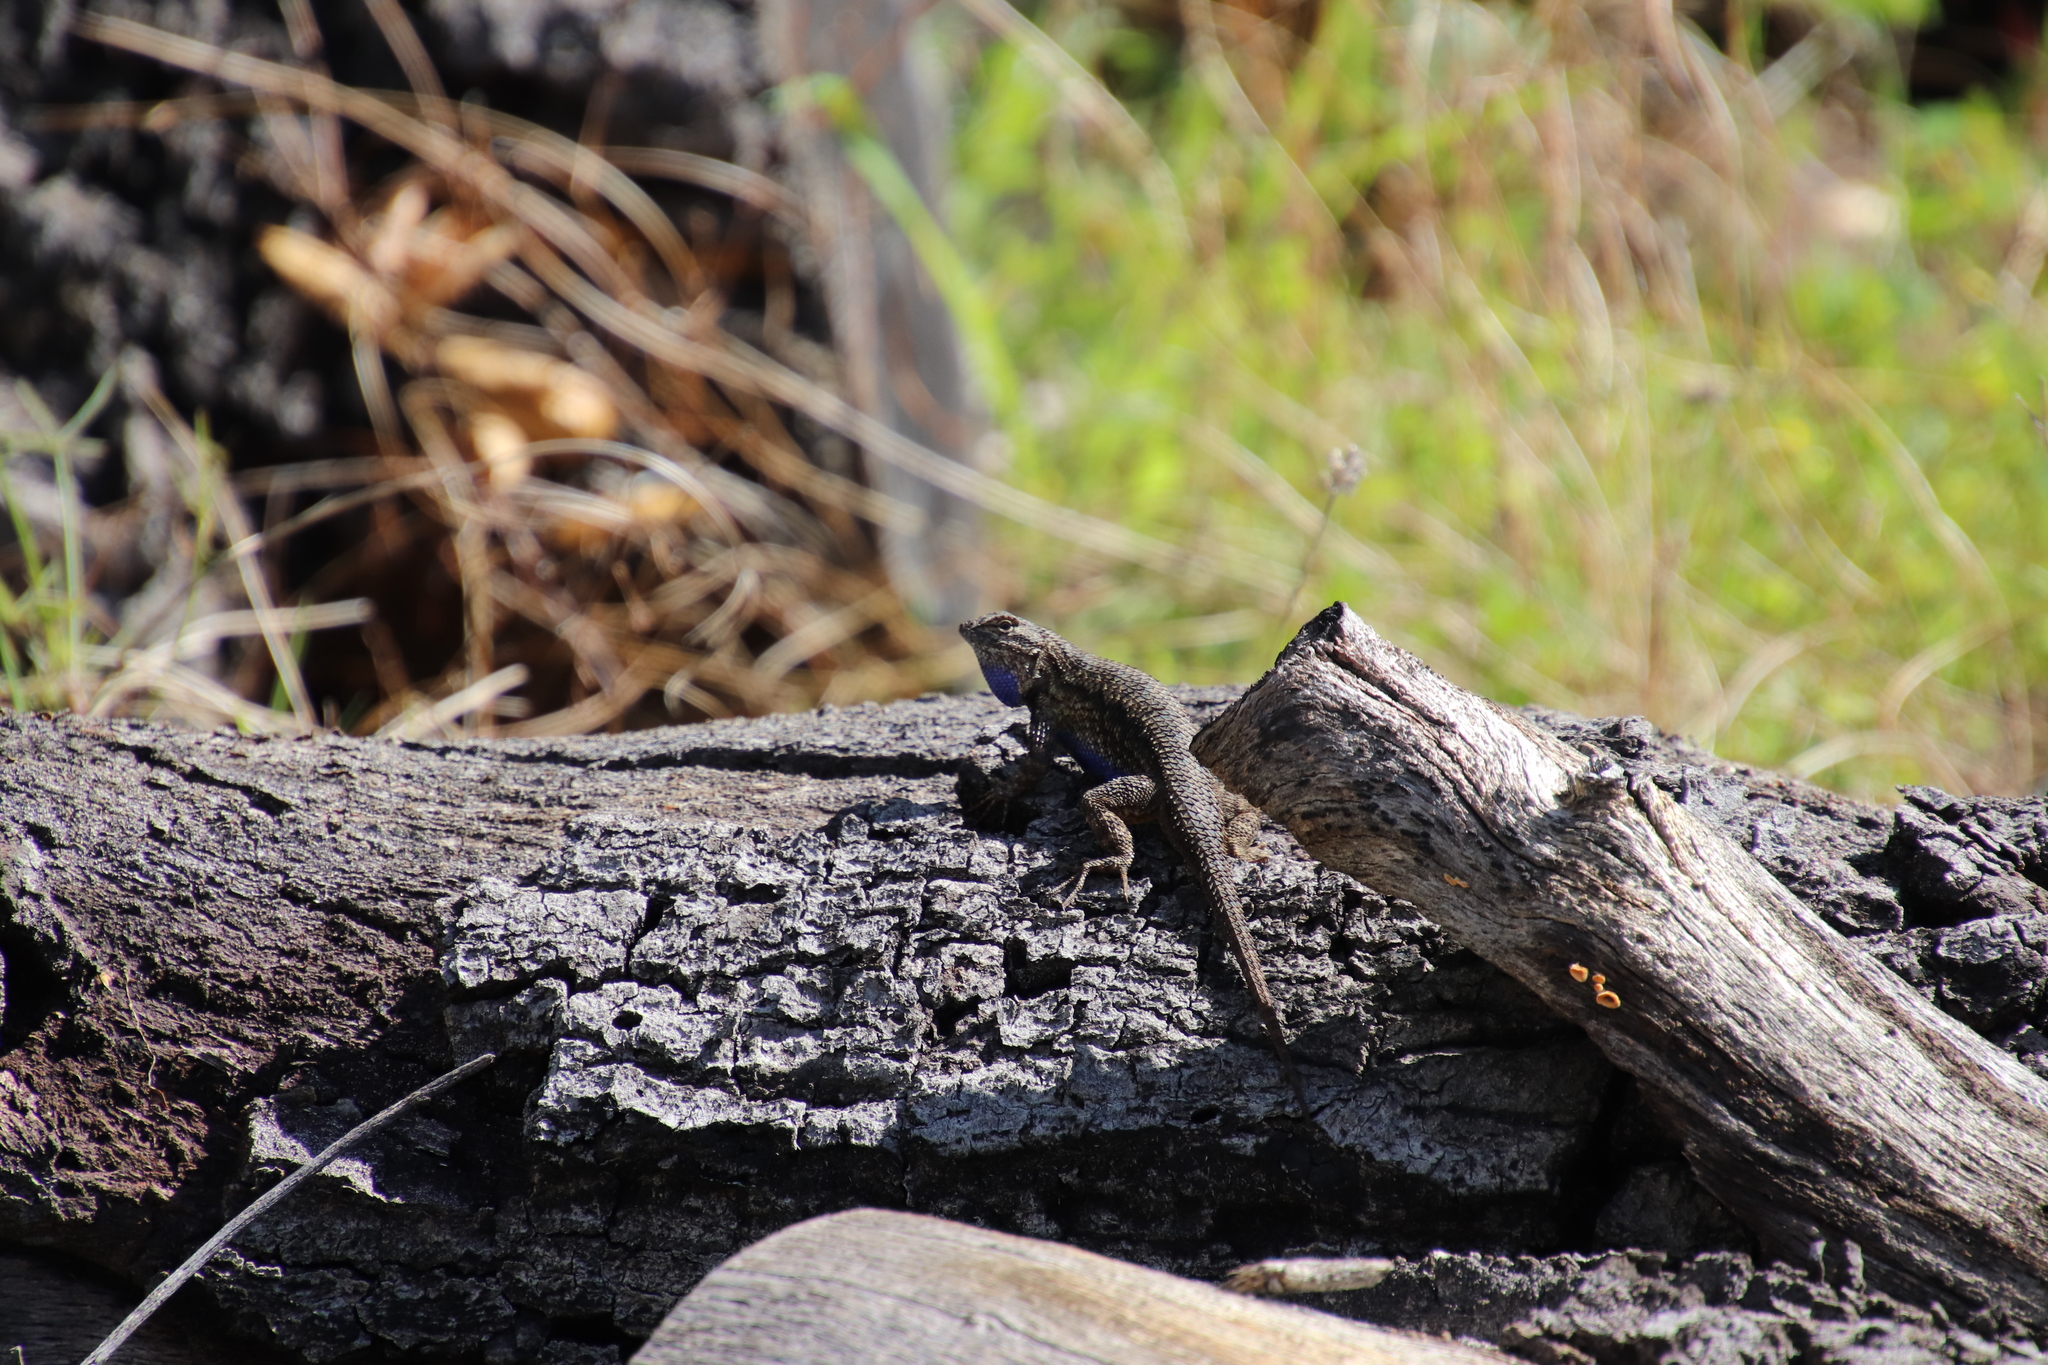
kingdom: Animalia
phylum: Chordata
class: Squamata
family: Phrynosomatidae
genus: Sceloporus
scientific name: Sceloporus occidentalis
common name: Western fence lizard
